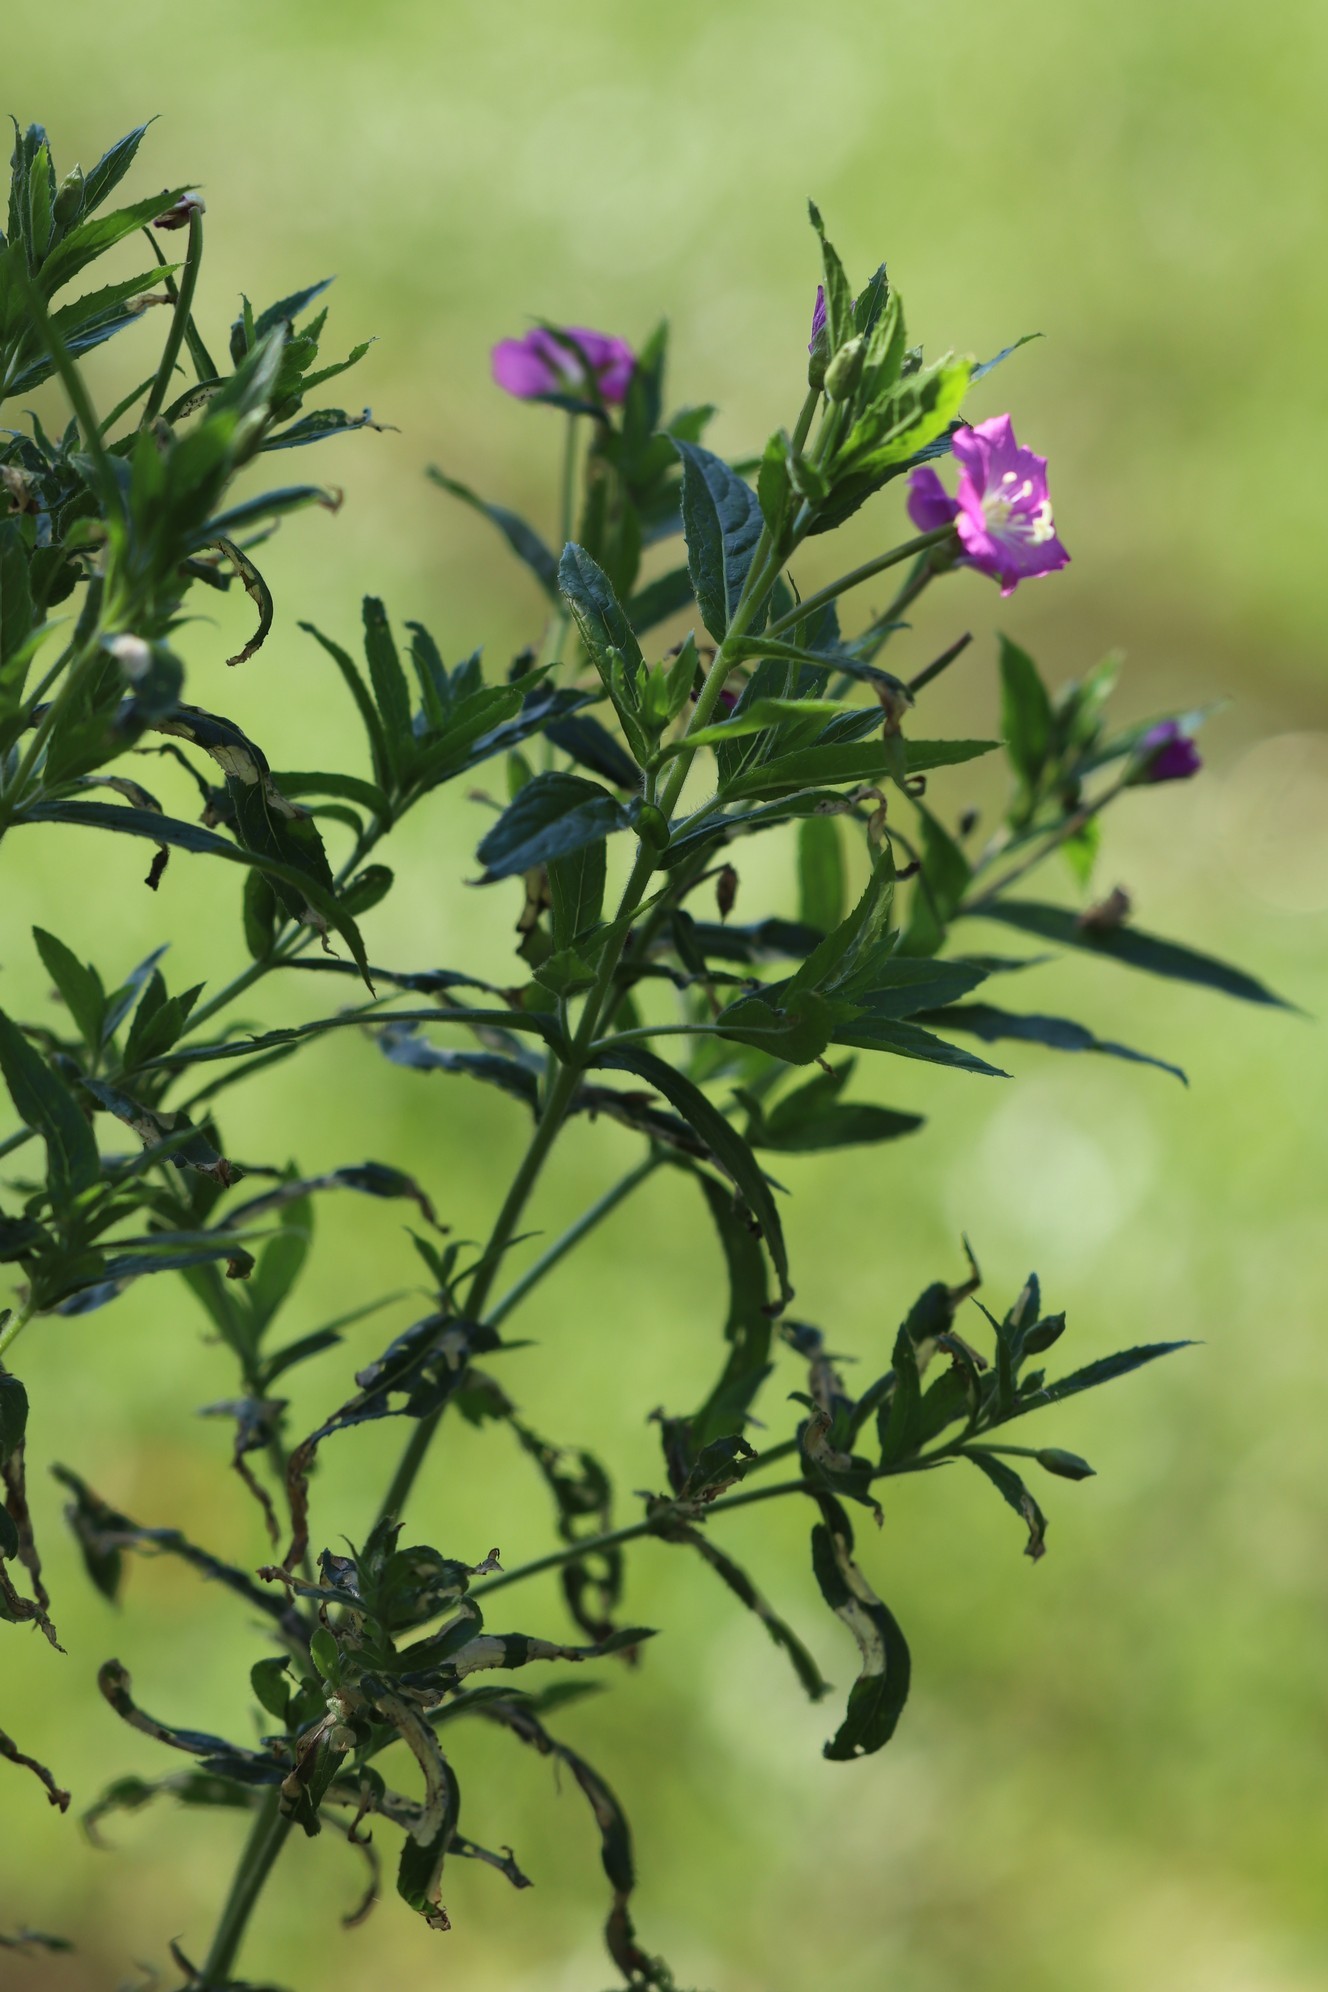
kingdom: Plantae
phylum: Tracheophyta
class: Magnoliopsida
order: Myrtales
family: Onagraceae
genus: Epilobium
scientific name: Epilobium hirsutum
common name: Great willowherb
